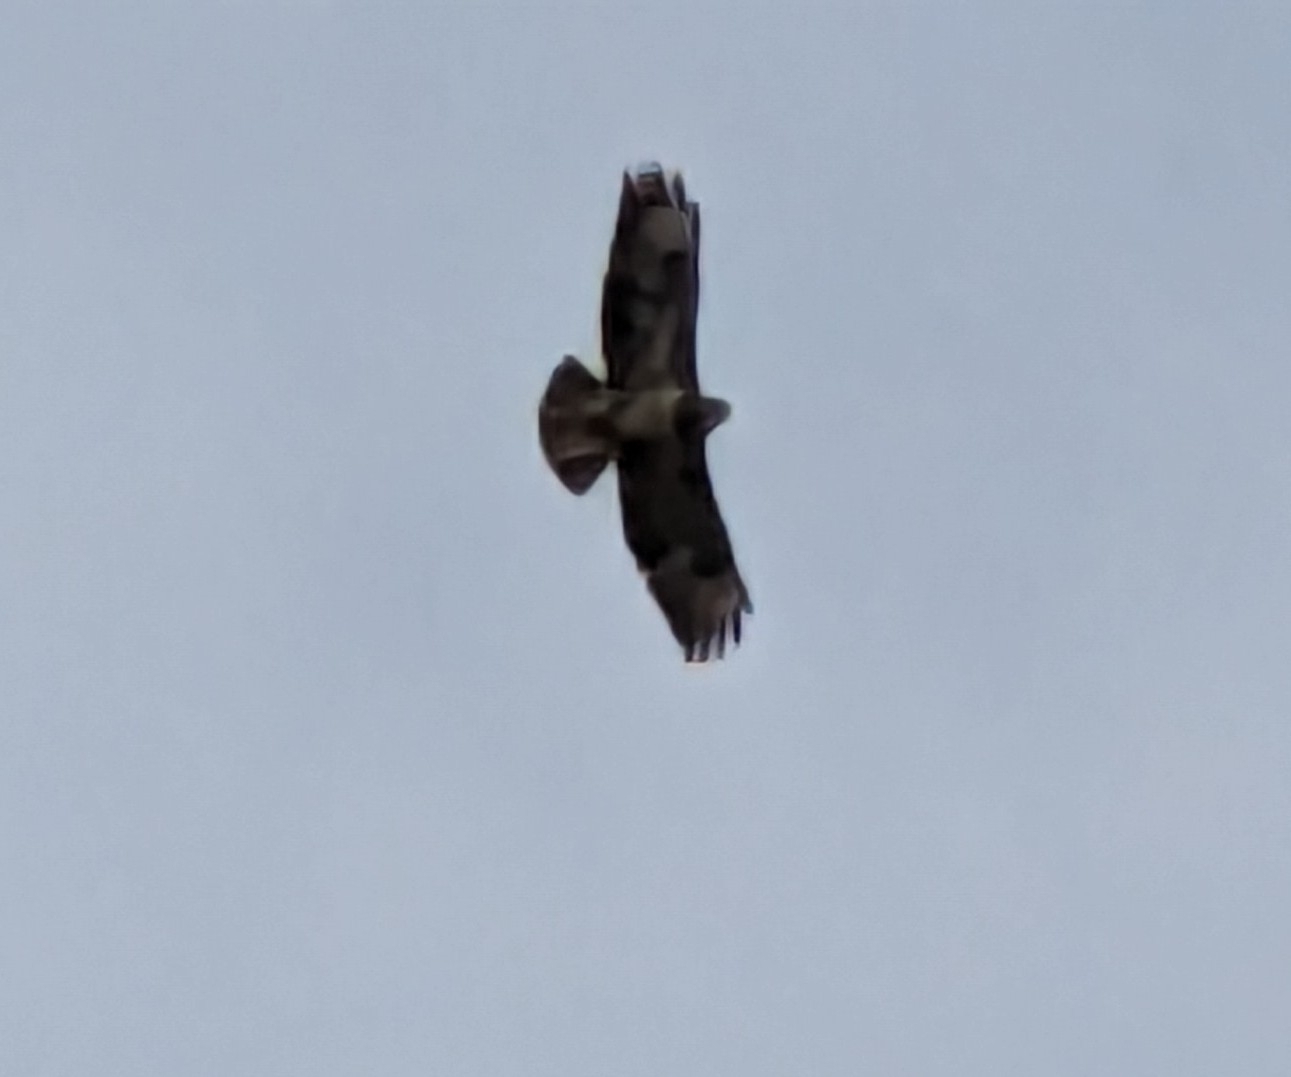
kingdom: Animalia
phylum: Chordata
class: Aves
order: Accipitriformes
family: Accipitridae
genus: Buteo
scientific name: Buteo buteo
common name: Common buzzard
